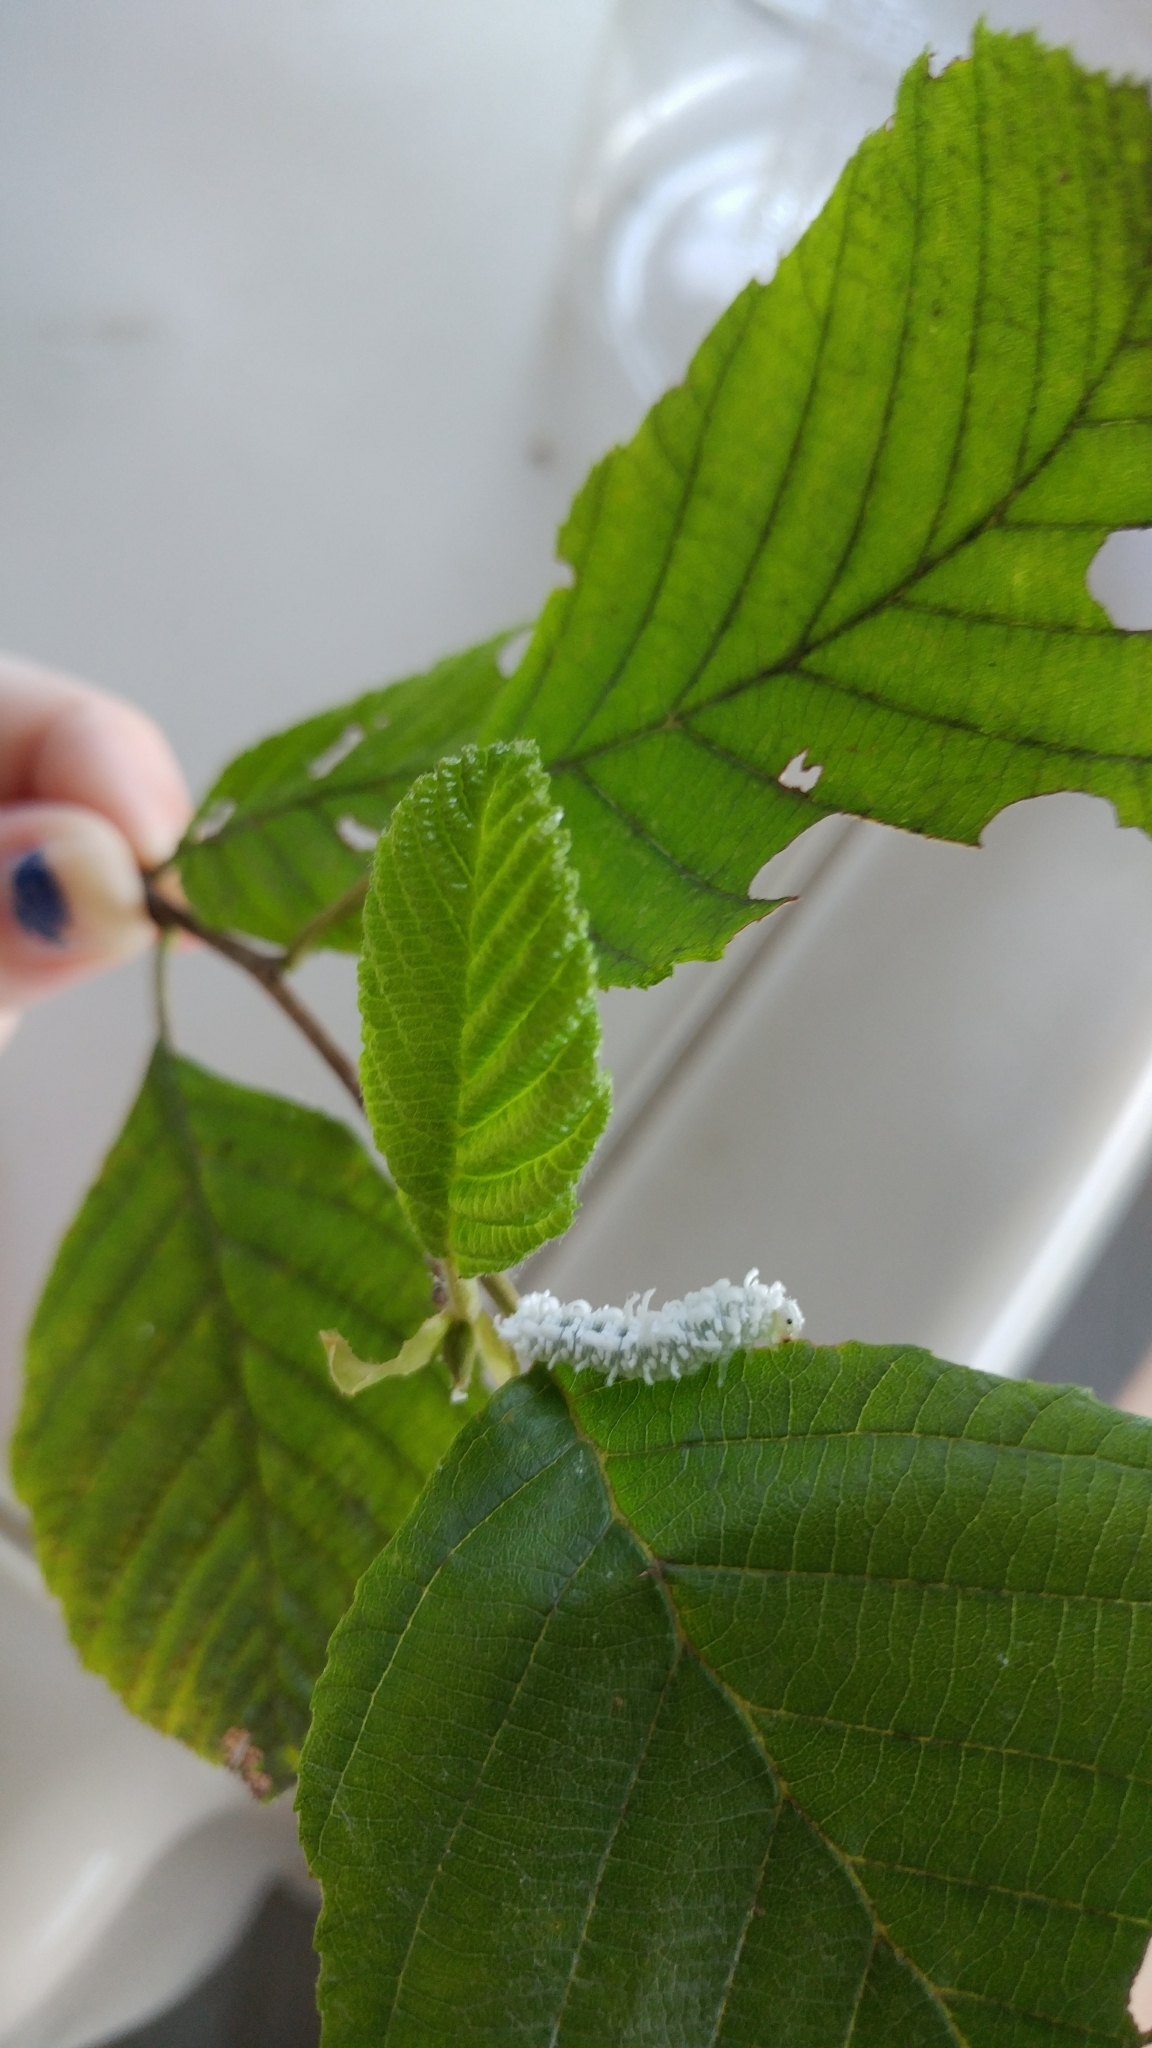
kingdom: Animalia
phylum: Arthropoda
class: Insecta
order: Hymenoptera
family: Tenthredinidae
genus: Eriocampa
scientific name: Eriocampa ovata
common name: Alder wooly sawfly
